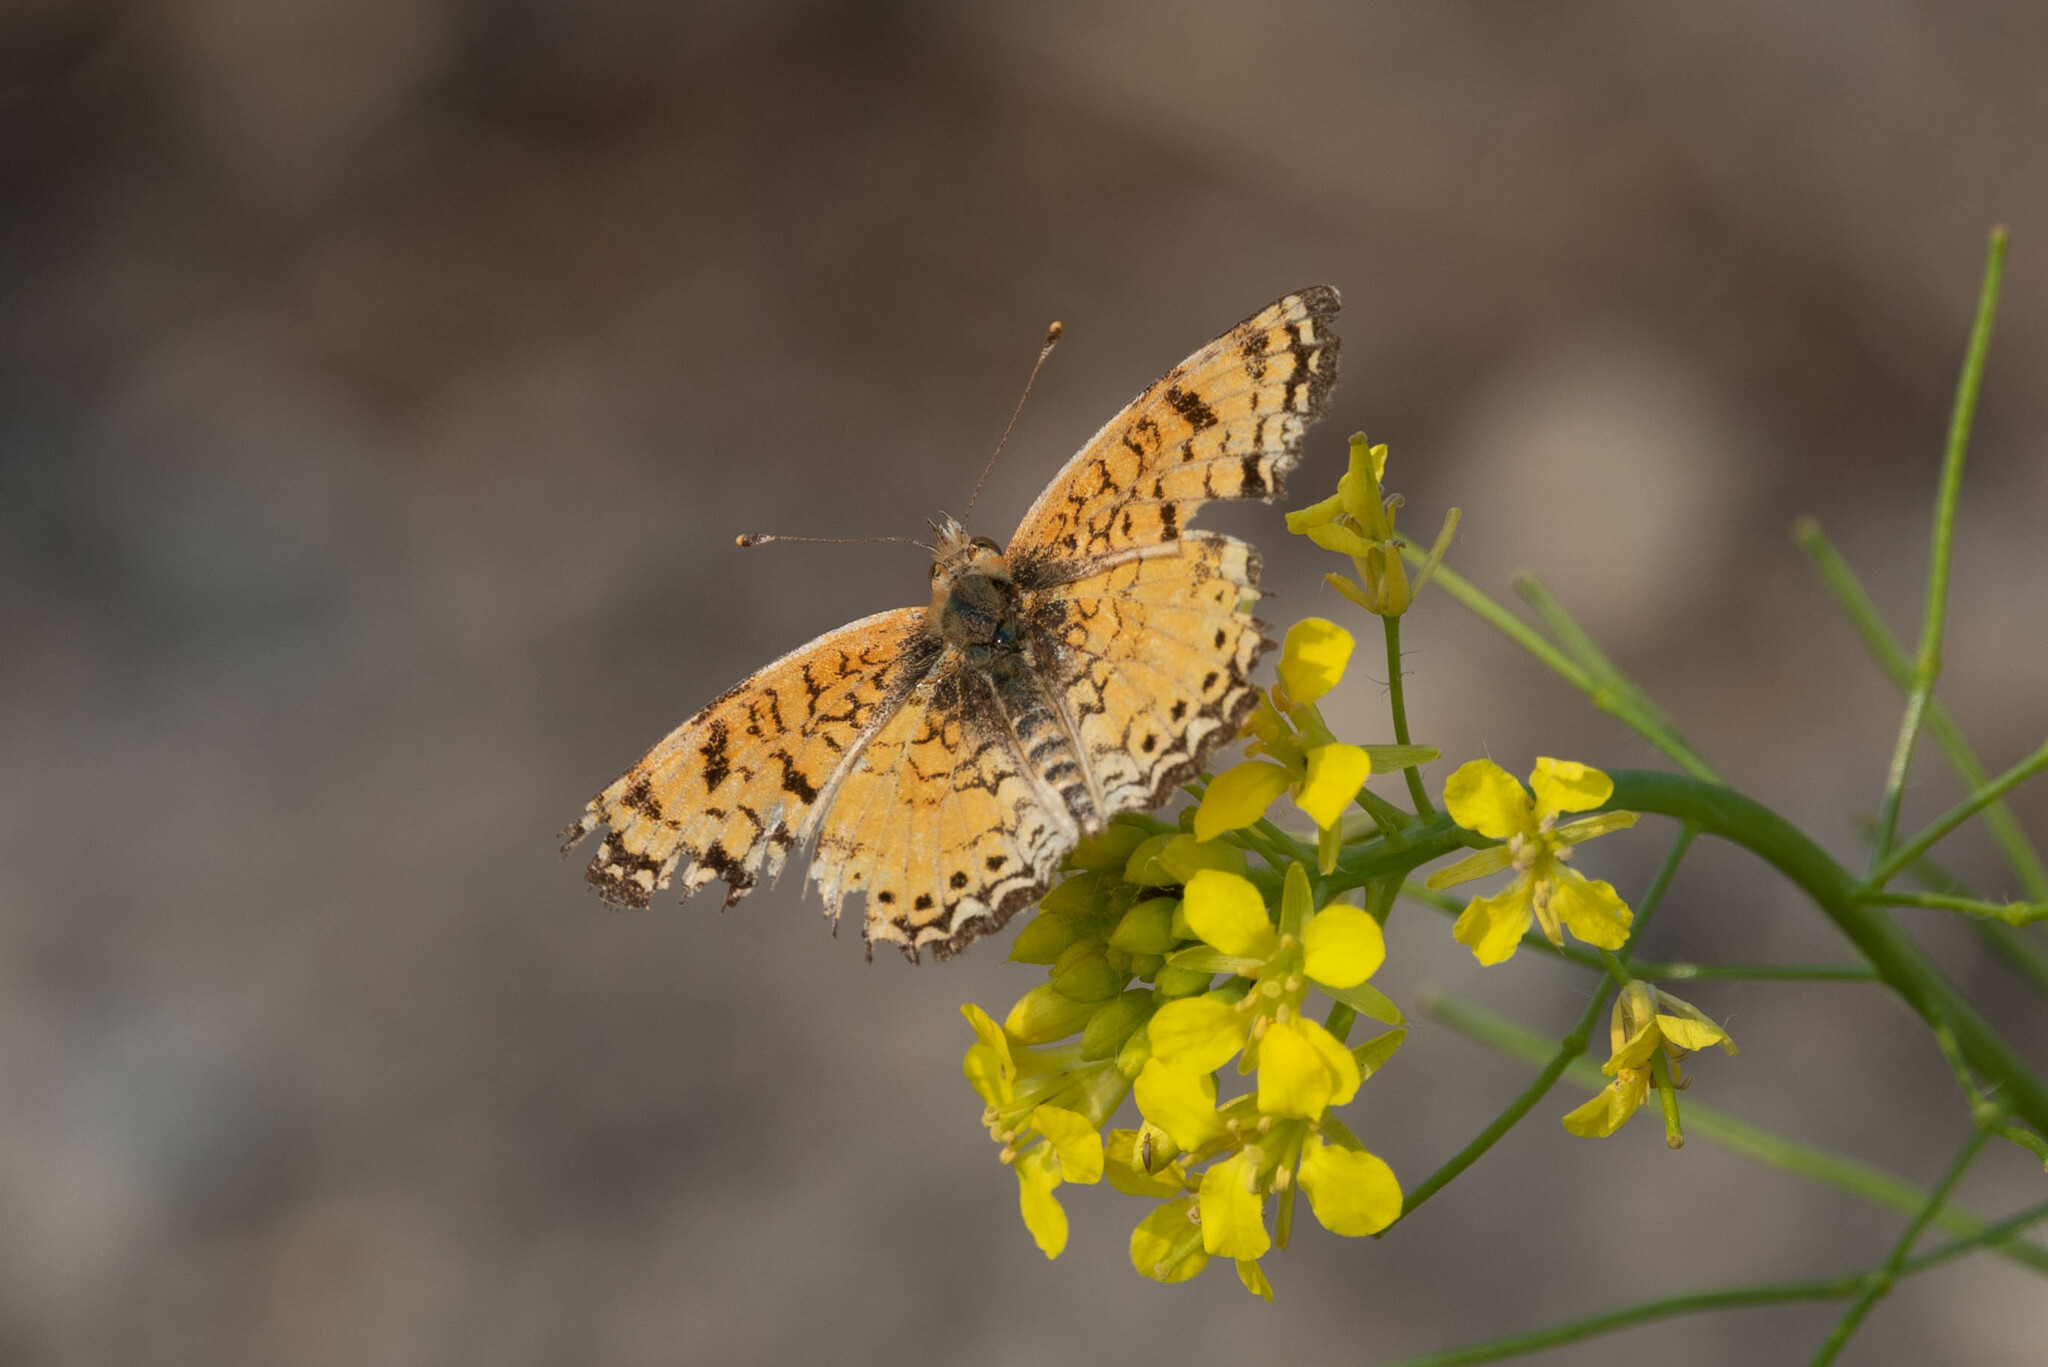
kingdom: Animalia
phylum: Arthropoda
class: Insecta
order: Lepidoptera
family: Nymphalidae
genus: Eresia
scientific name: Eresia aveyrona
